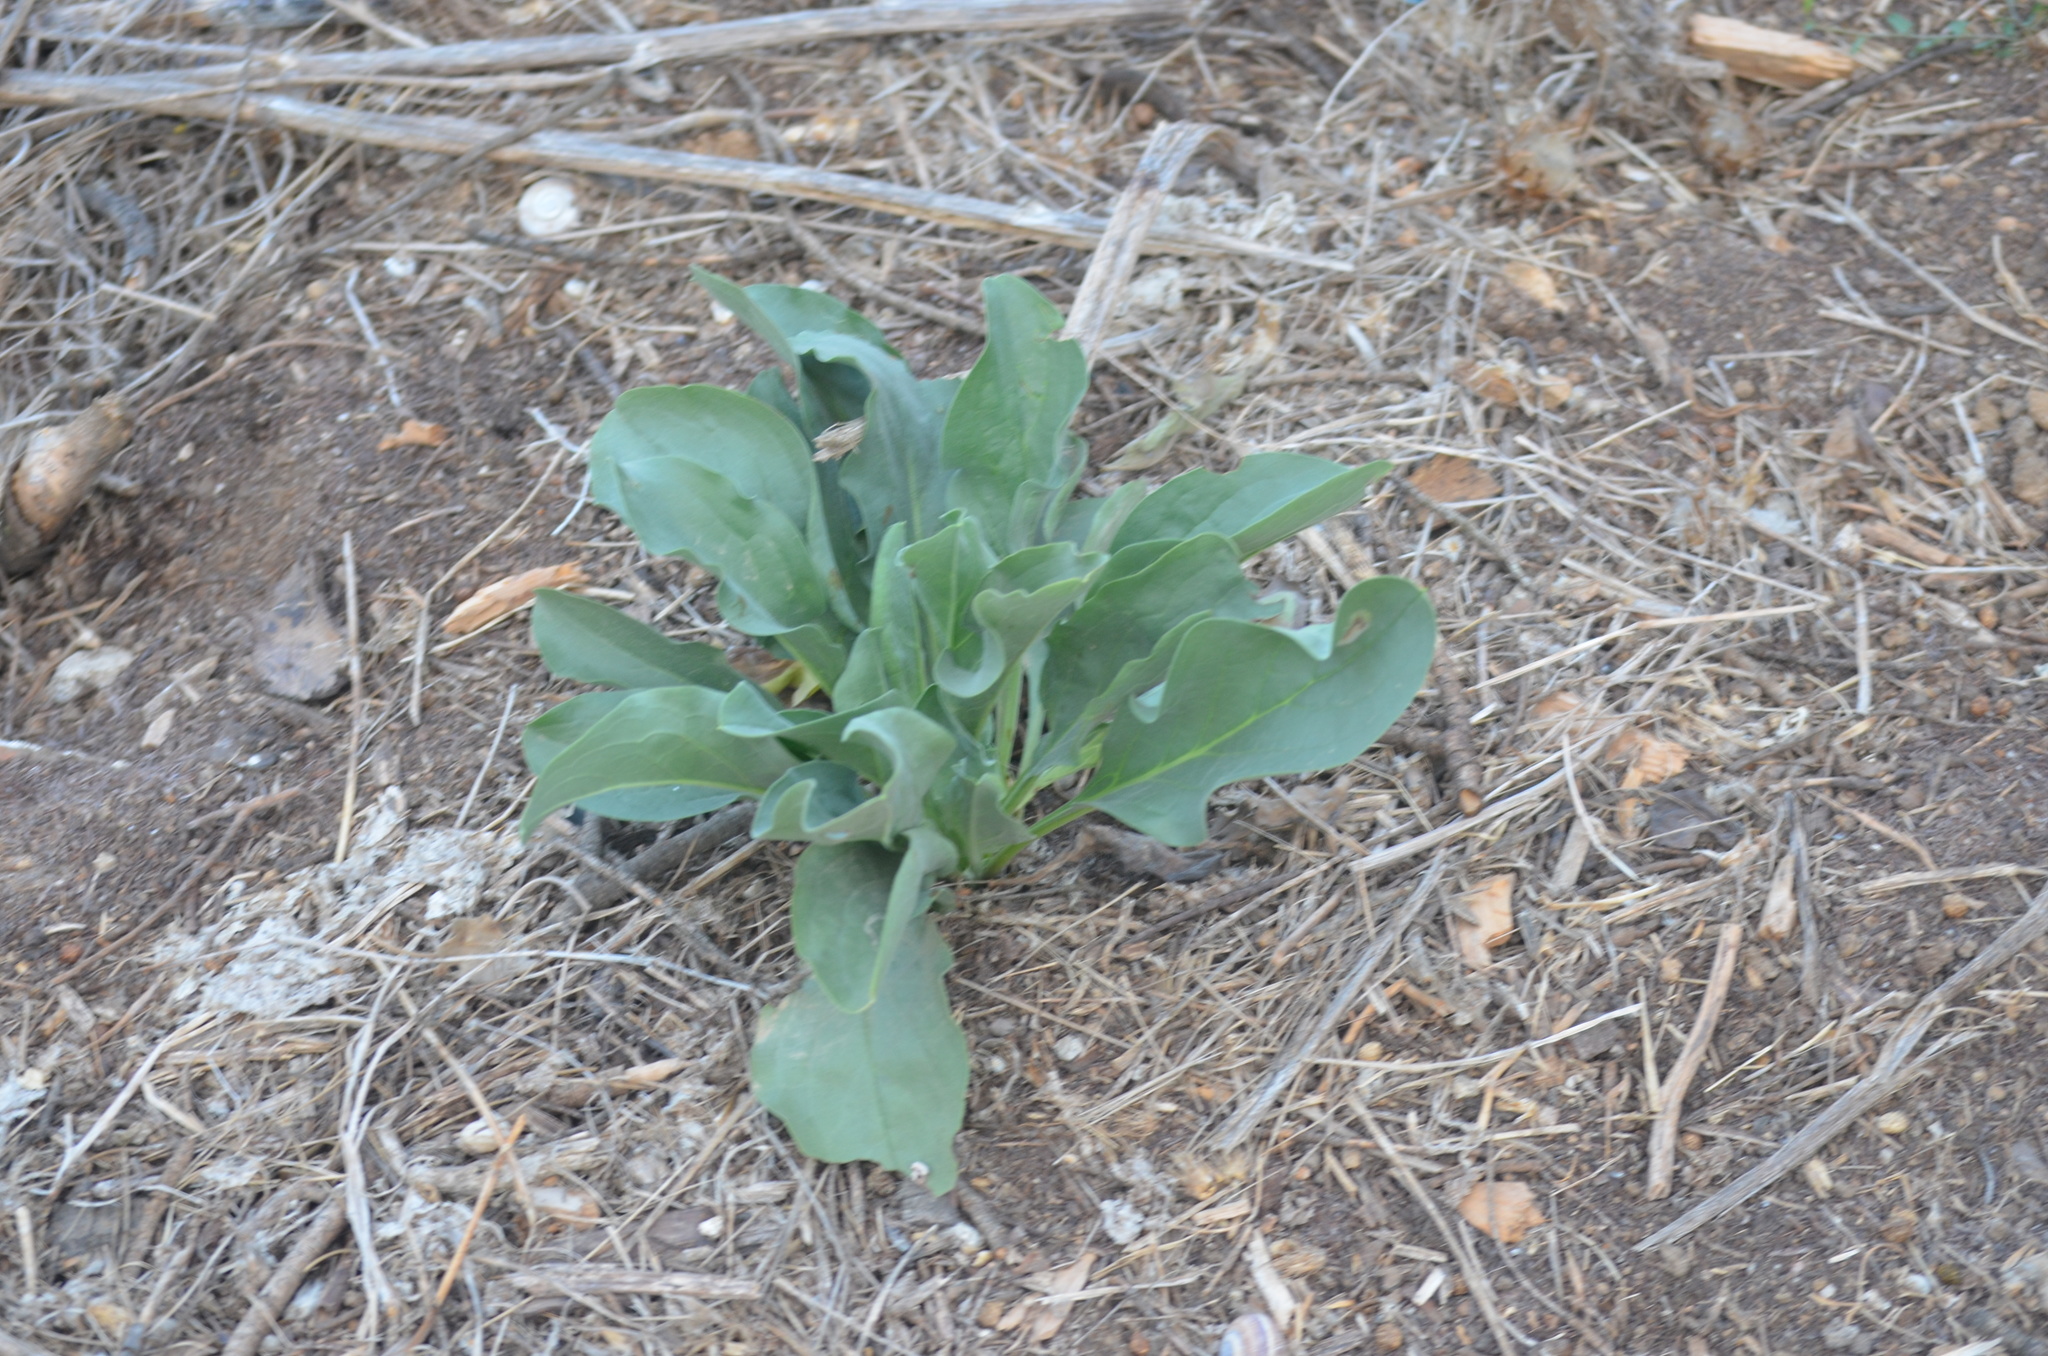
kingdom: Plantae
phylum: Tracheophyta
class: Magnoliopsida
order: Solanales
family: Solanaceae
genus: Nicotiana
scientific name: Nicotiana glauca
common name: Tree tobacco
